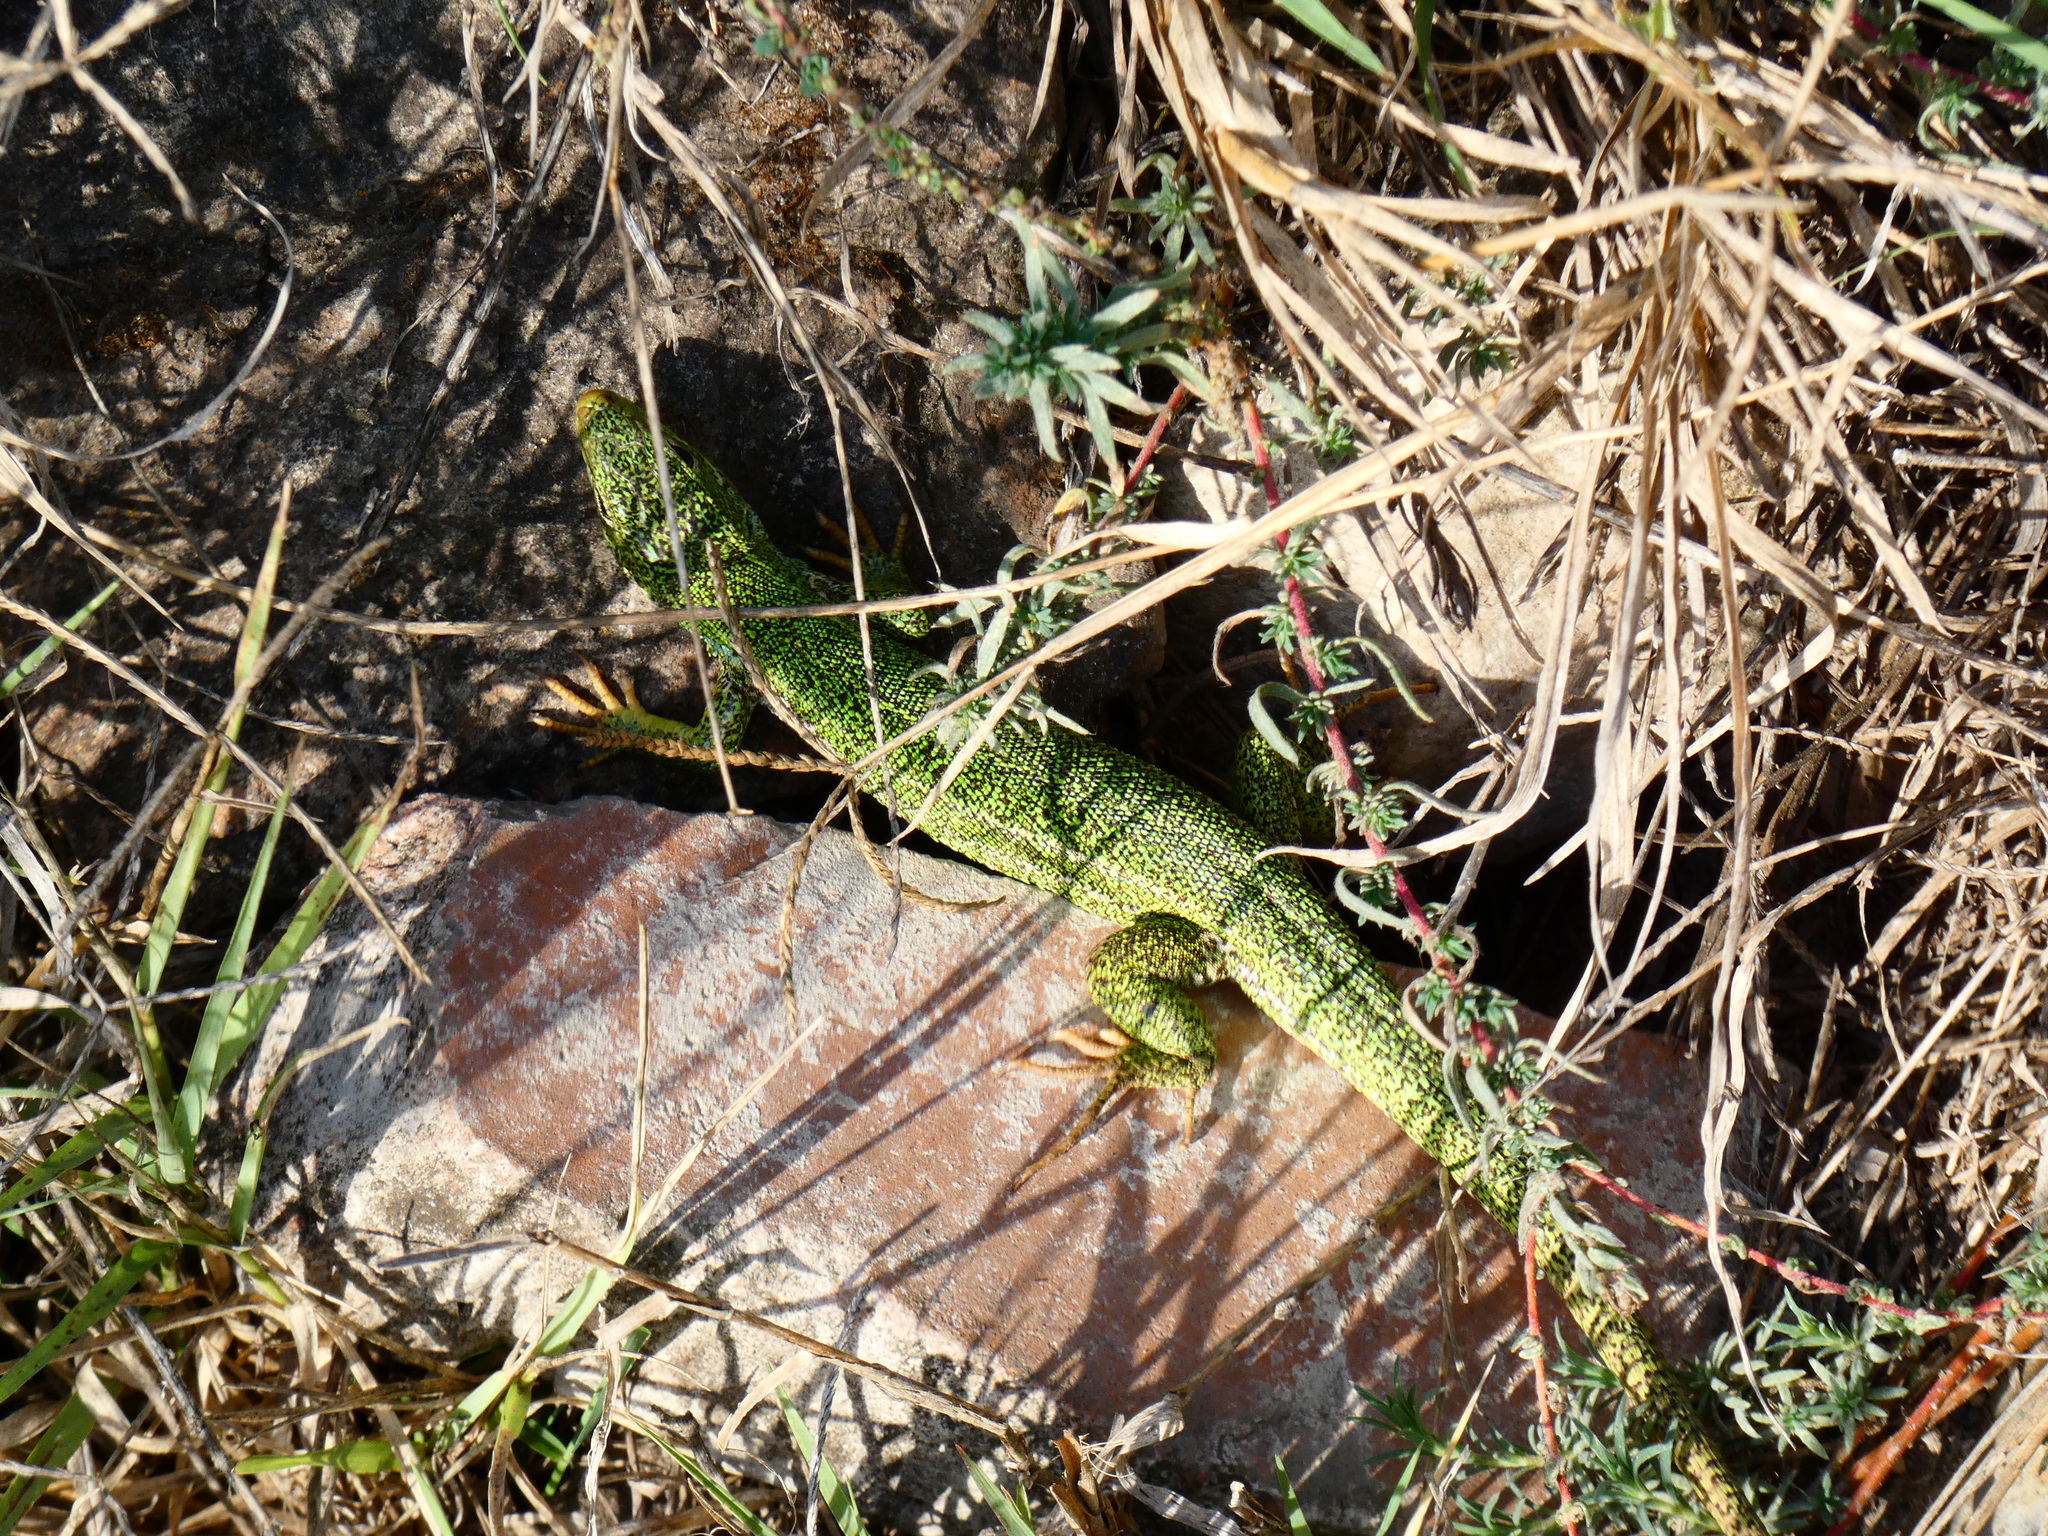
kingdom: Animalia
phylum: Chordata
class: Squamata
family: Lacertidae
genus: Lacerta
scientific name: Lacerta diplochondrodes
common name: Rhodos green lizard
